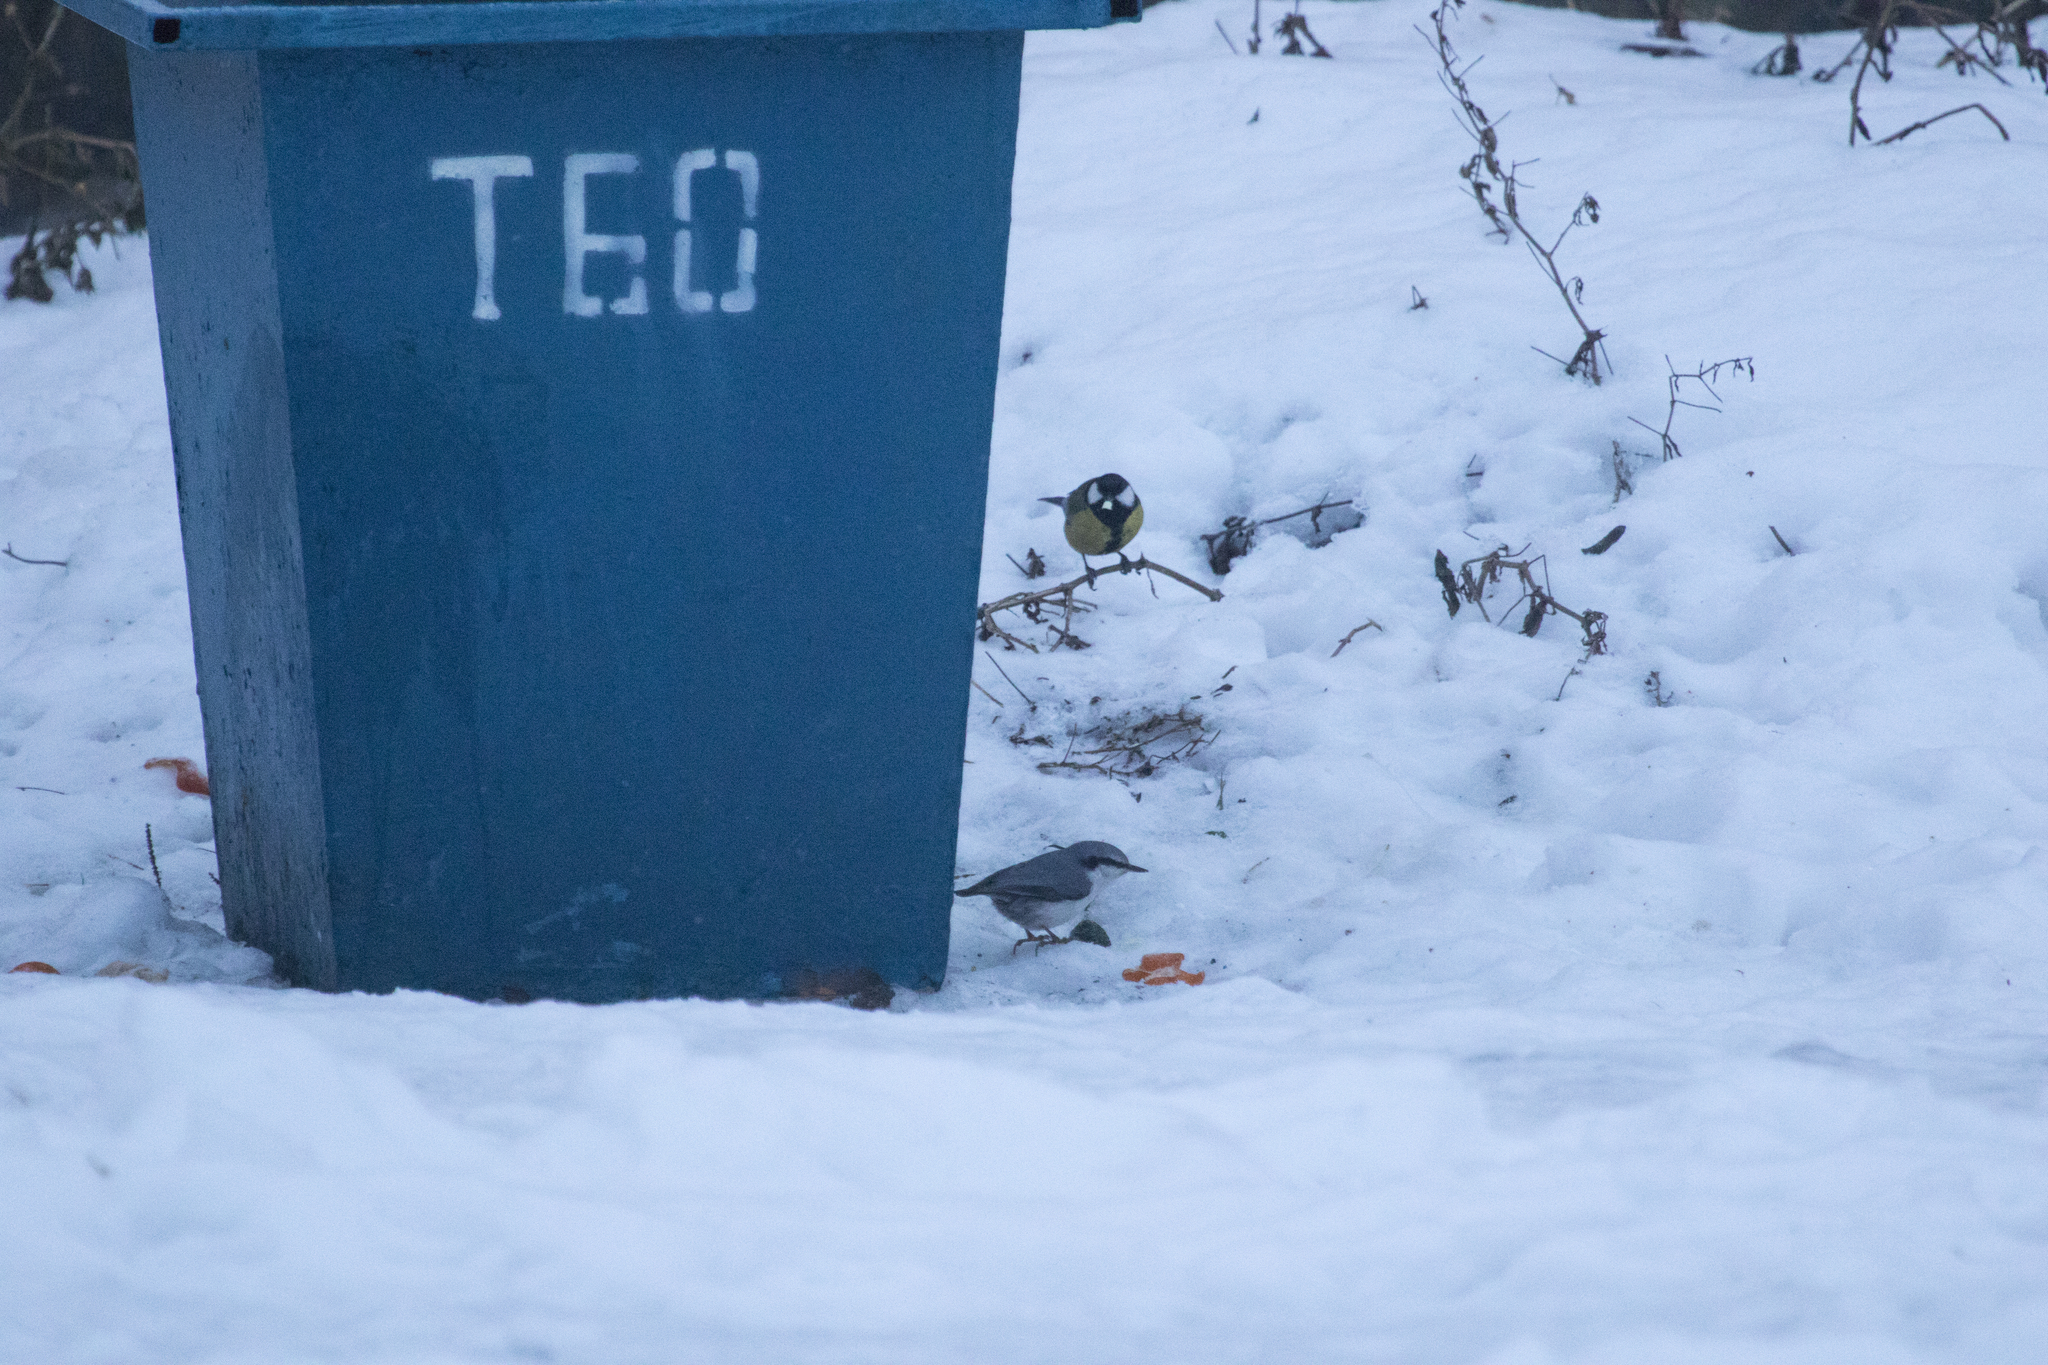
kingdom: Animalia
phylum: Chordata
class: Aves
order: Passeriformes
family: Paridae
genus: Parus
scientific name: Parus major
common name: Great tit
